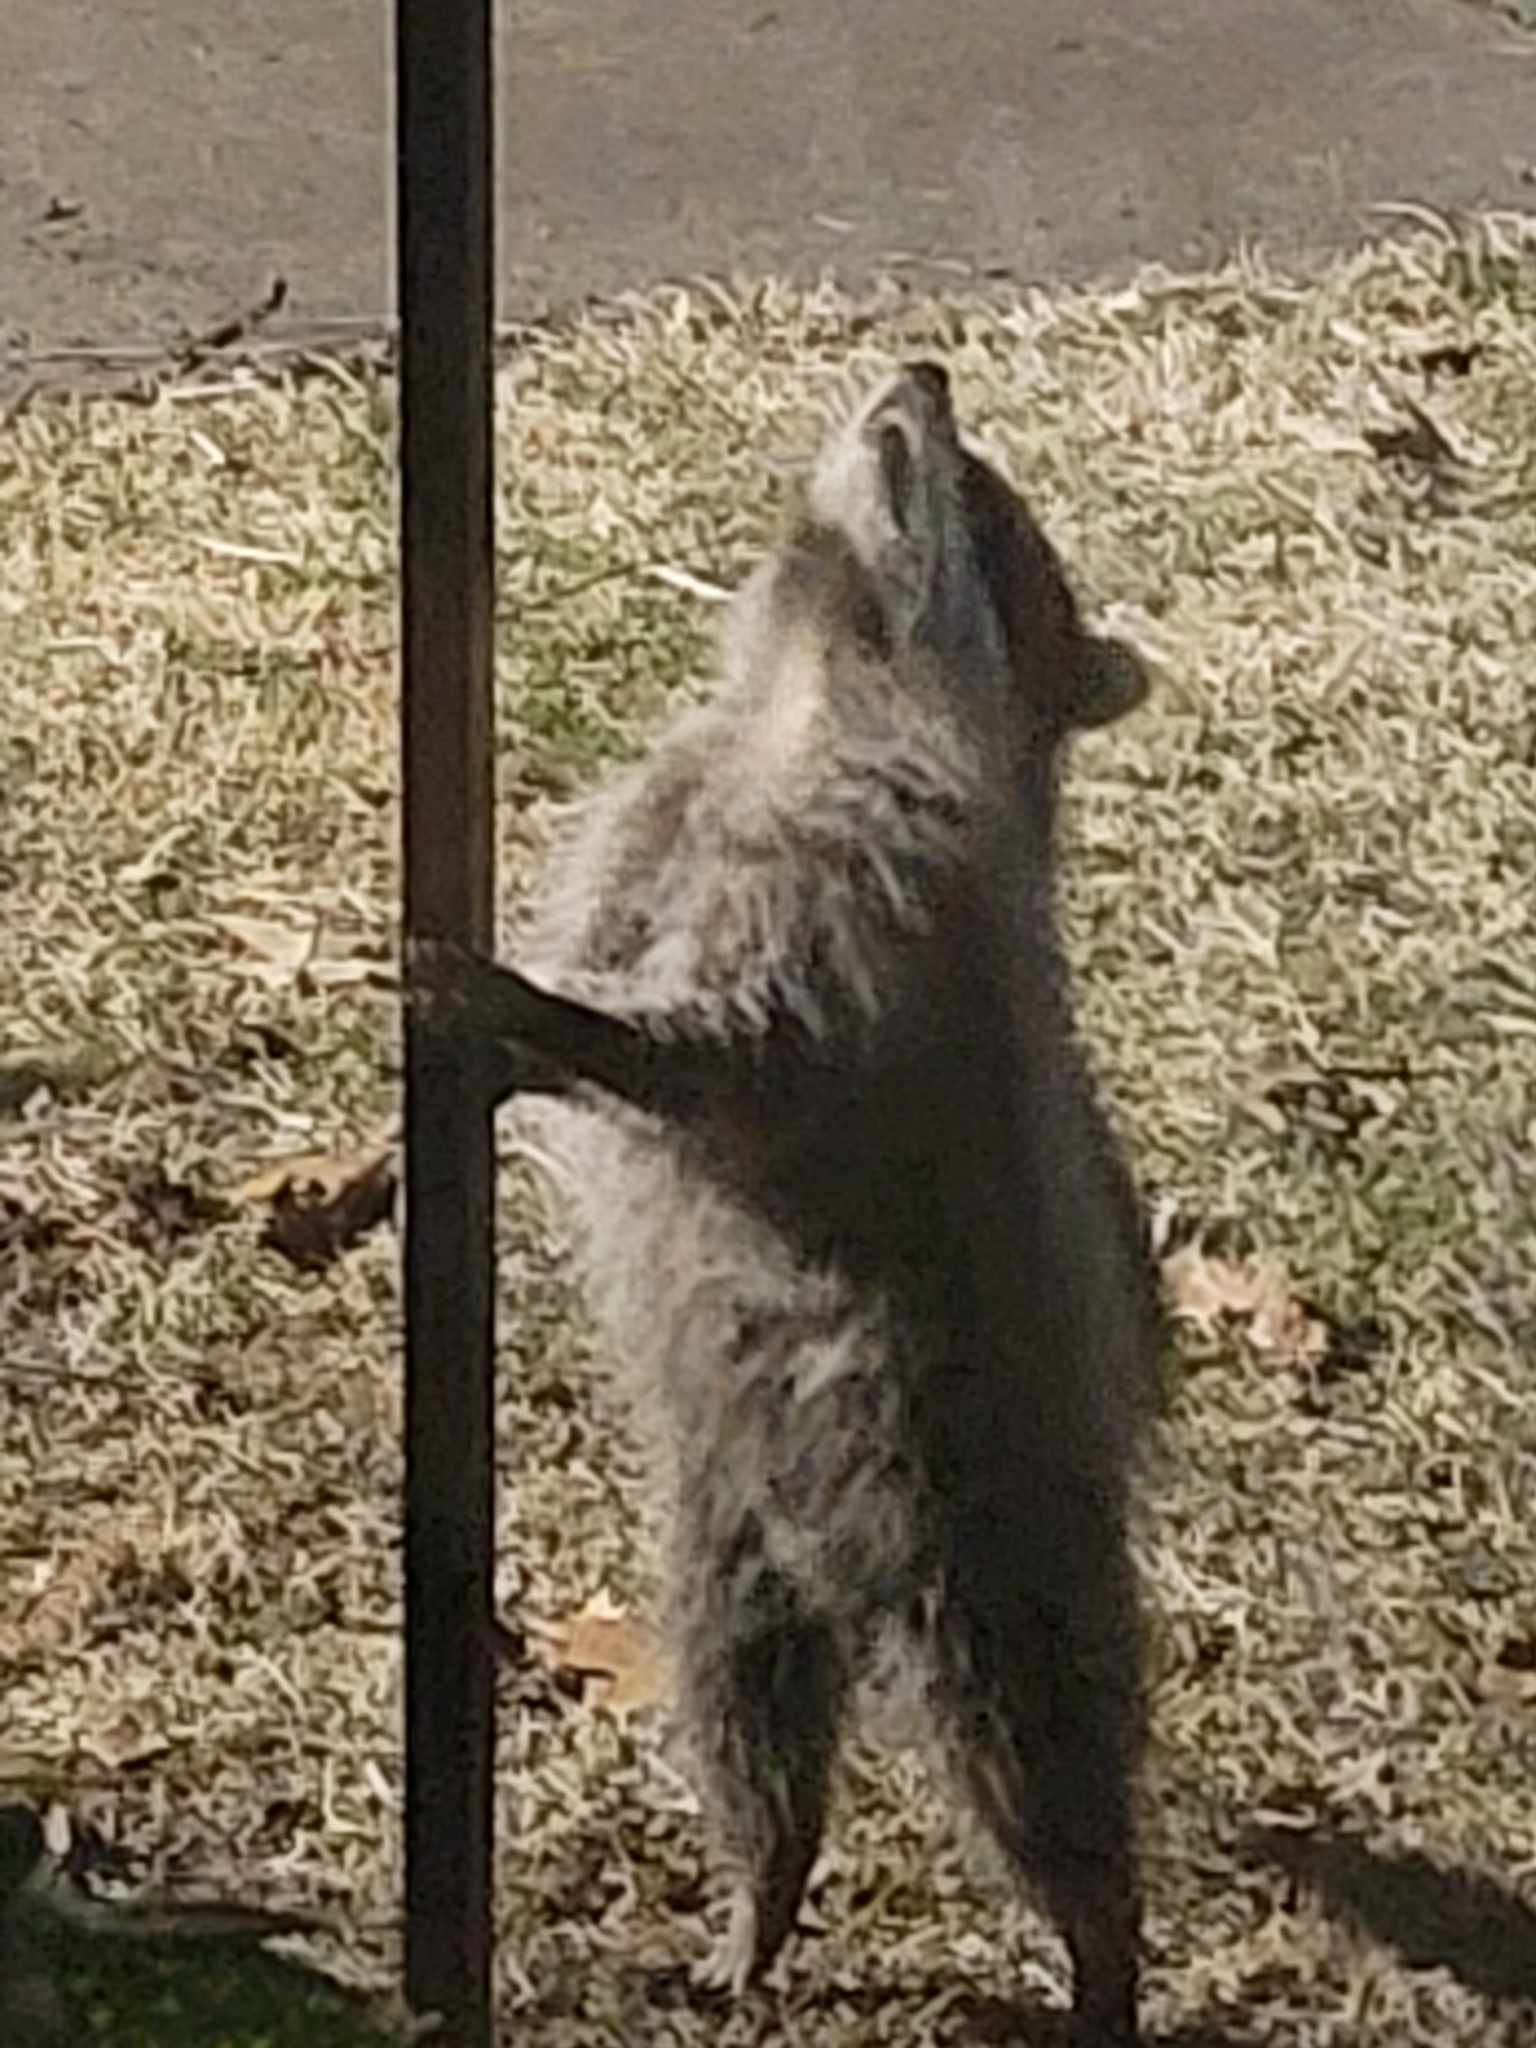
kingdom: Animalia
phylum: Chordata
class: Mammalia
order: Carnivora
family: Procyonidae
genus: Procyon
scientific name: Procyon lotor
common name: Raccoon
